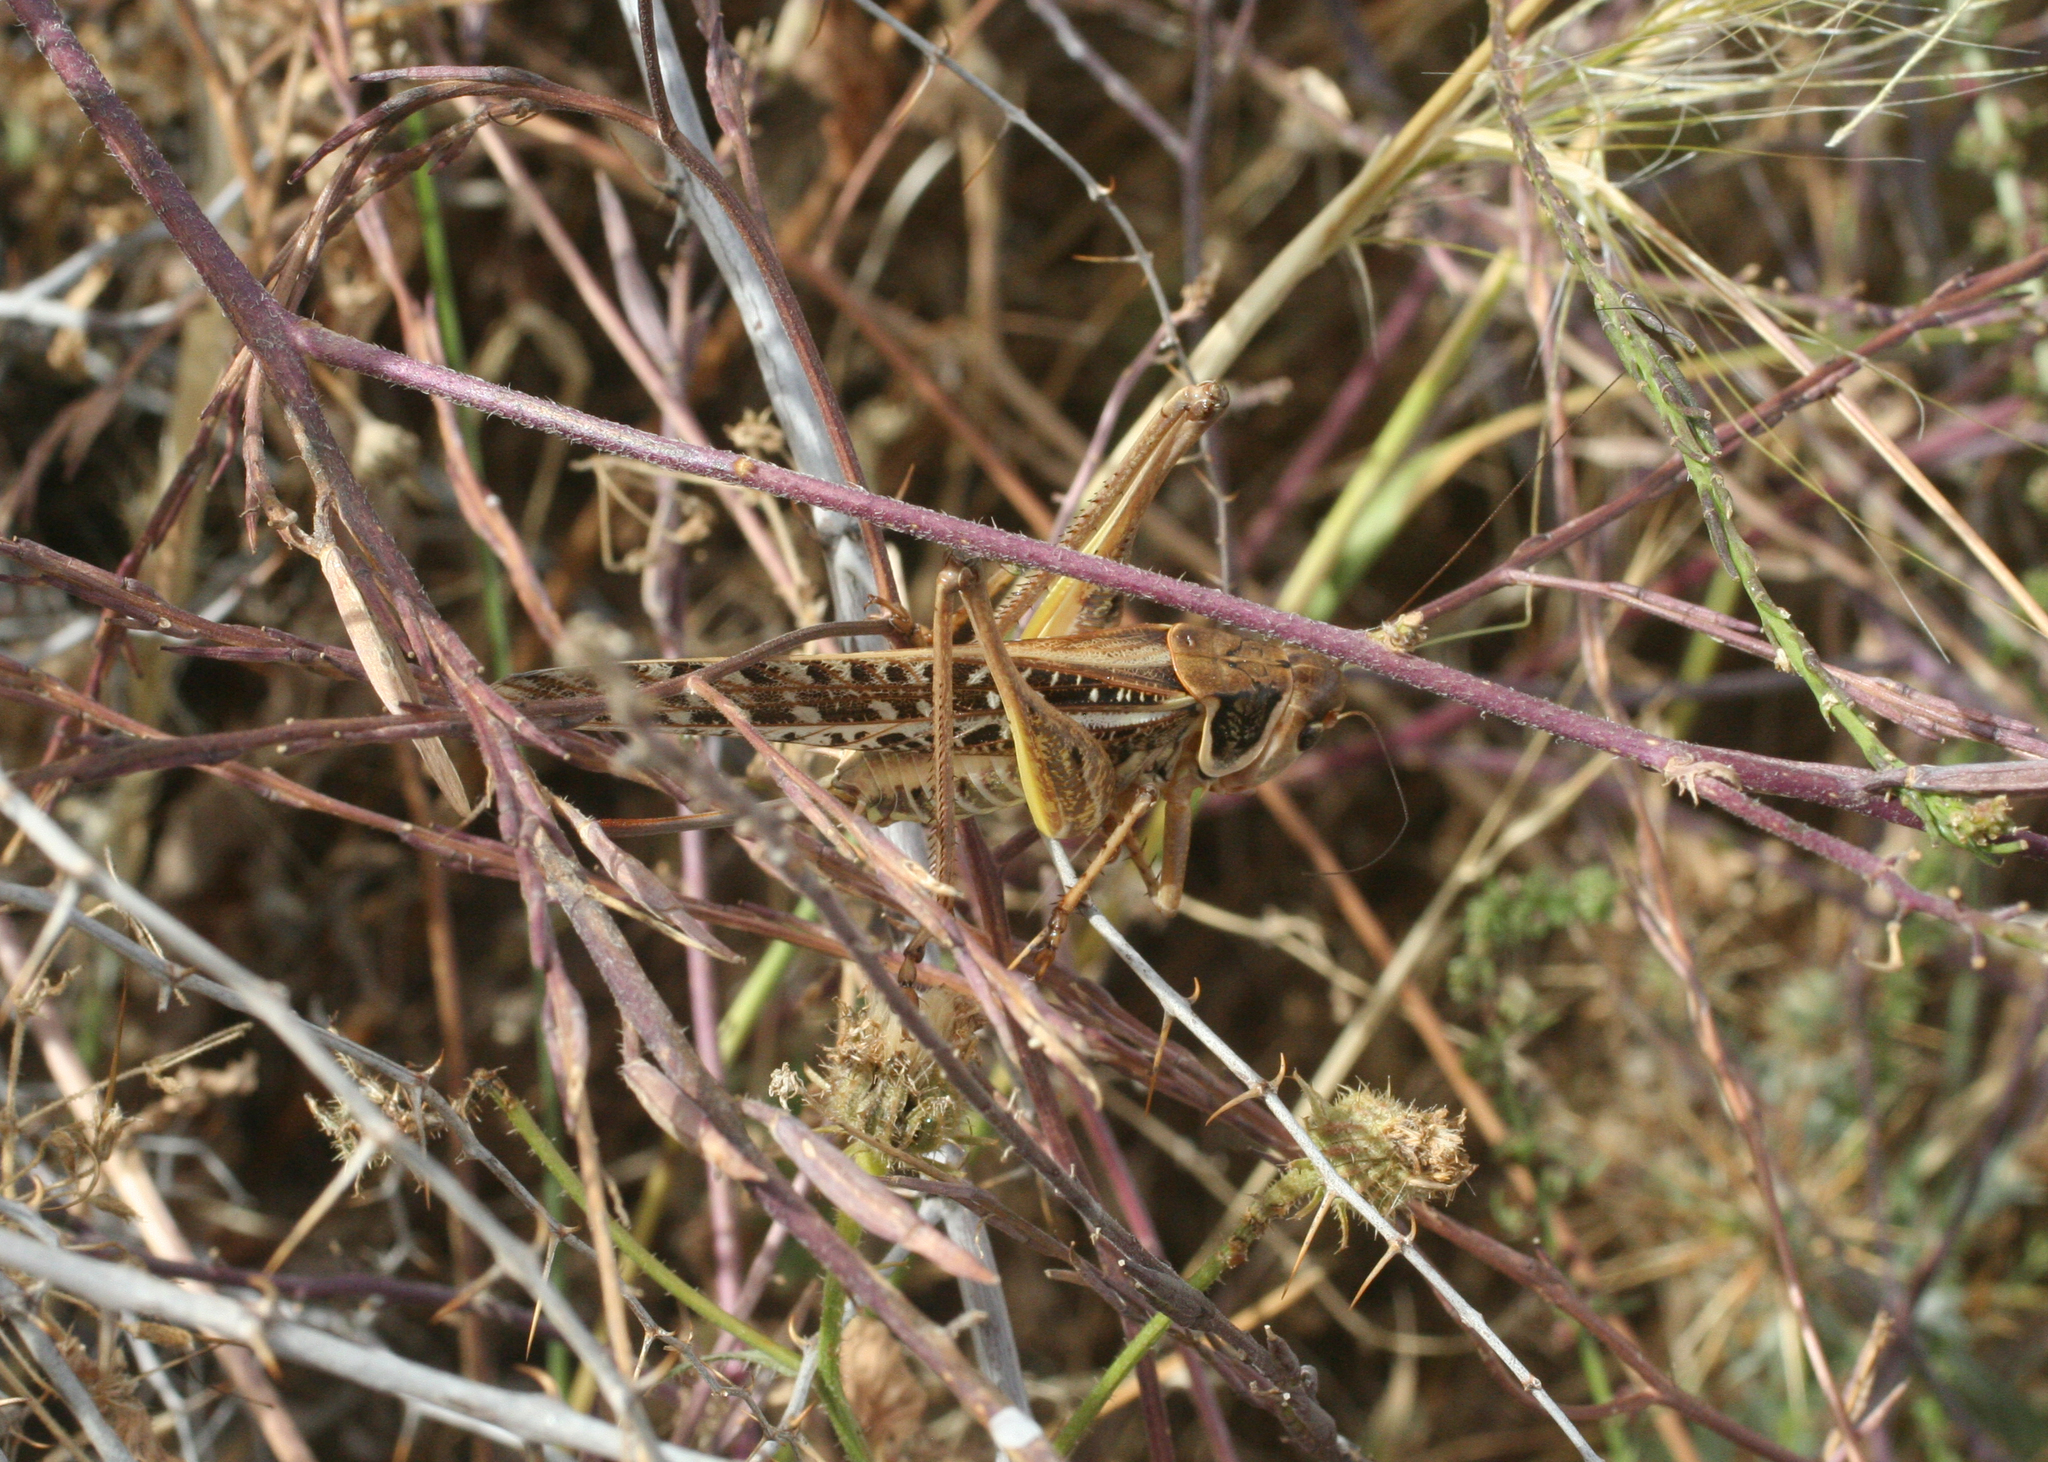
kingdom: Animalia
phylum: Arthropoda
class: Insecta
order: Orthoptera
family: Tettigoniidae
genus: Decticus
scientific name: Decticus albifrons
